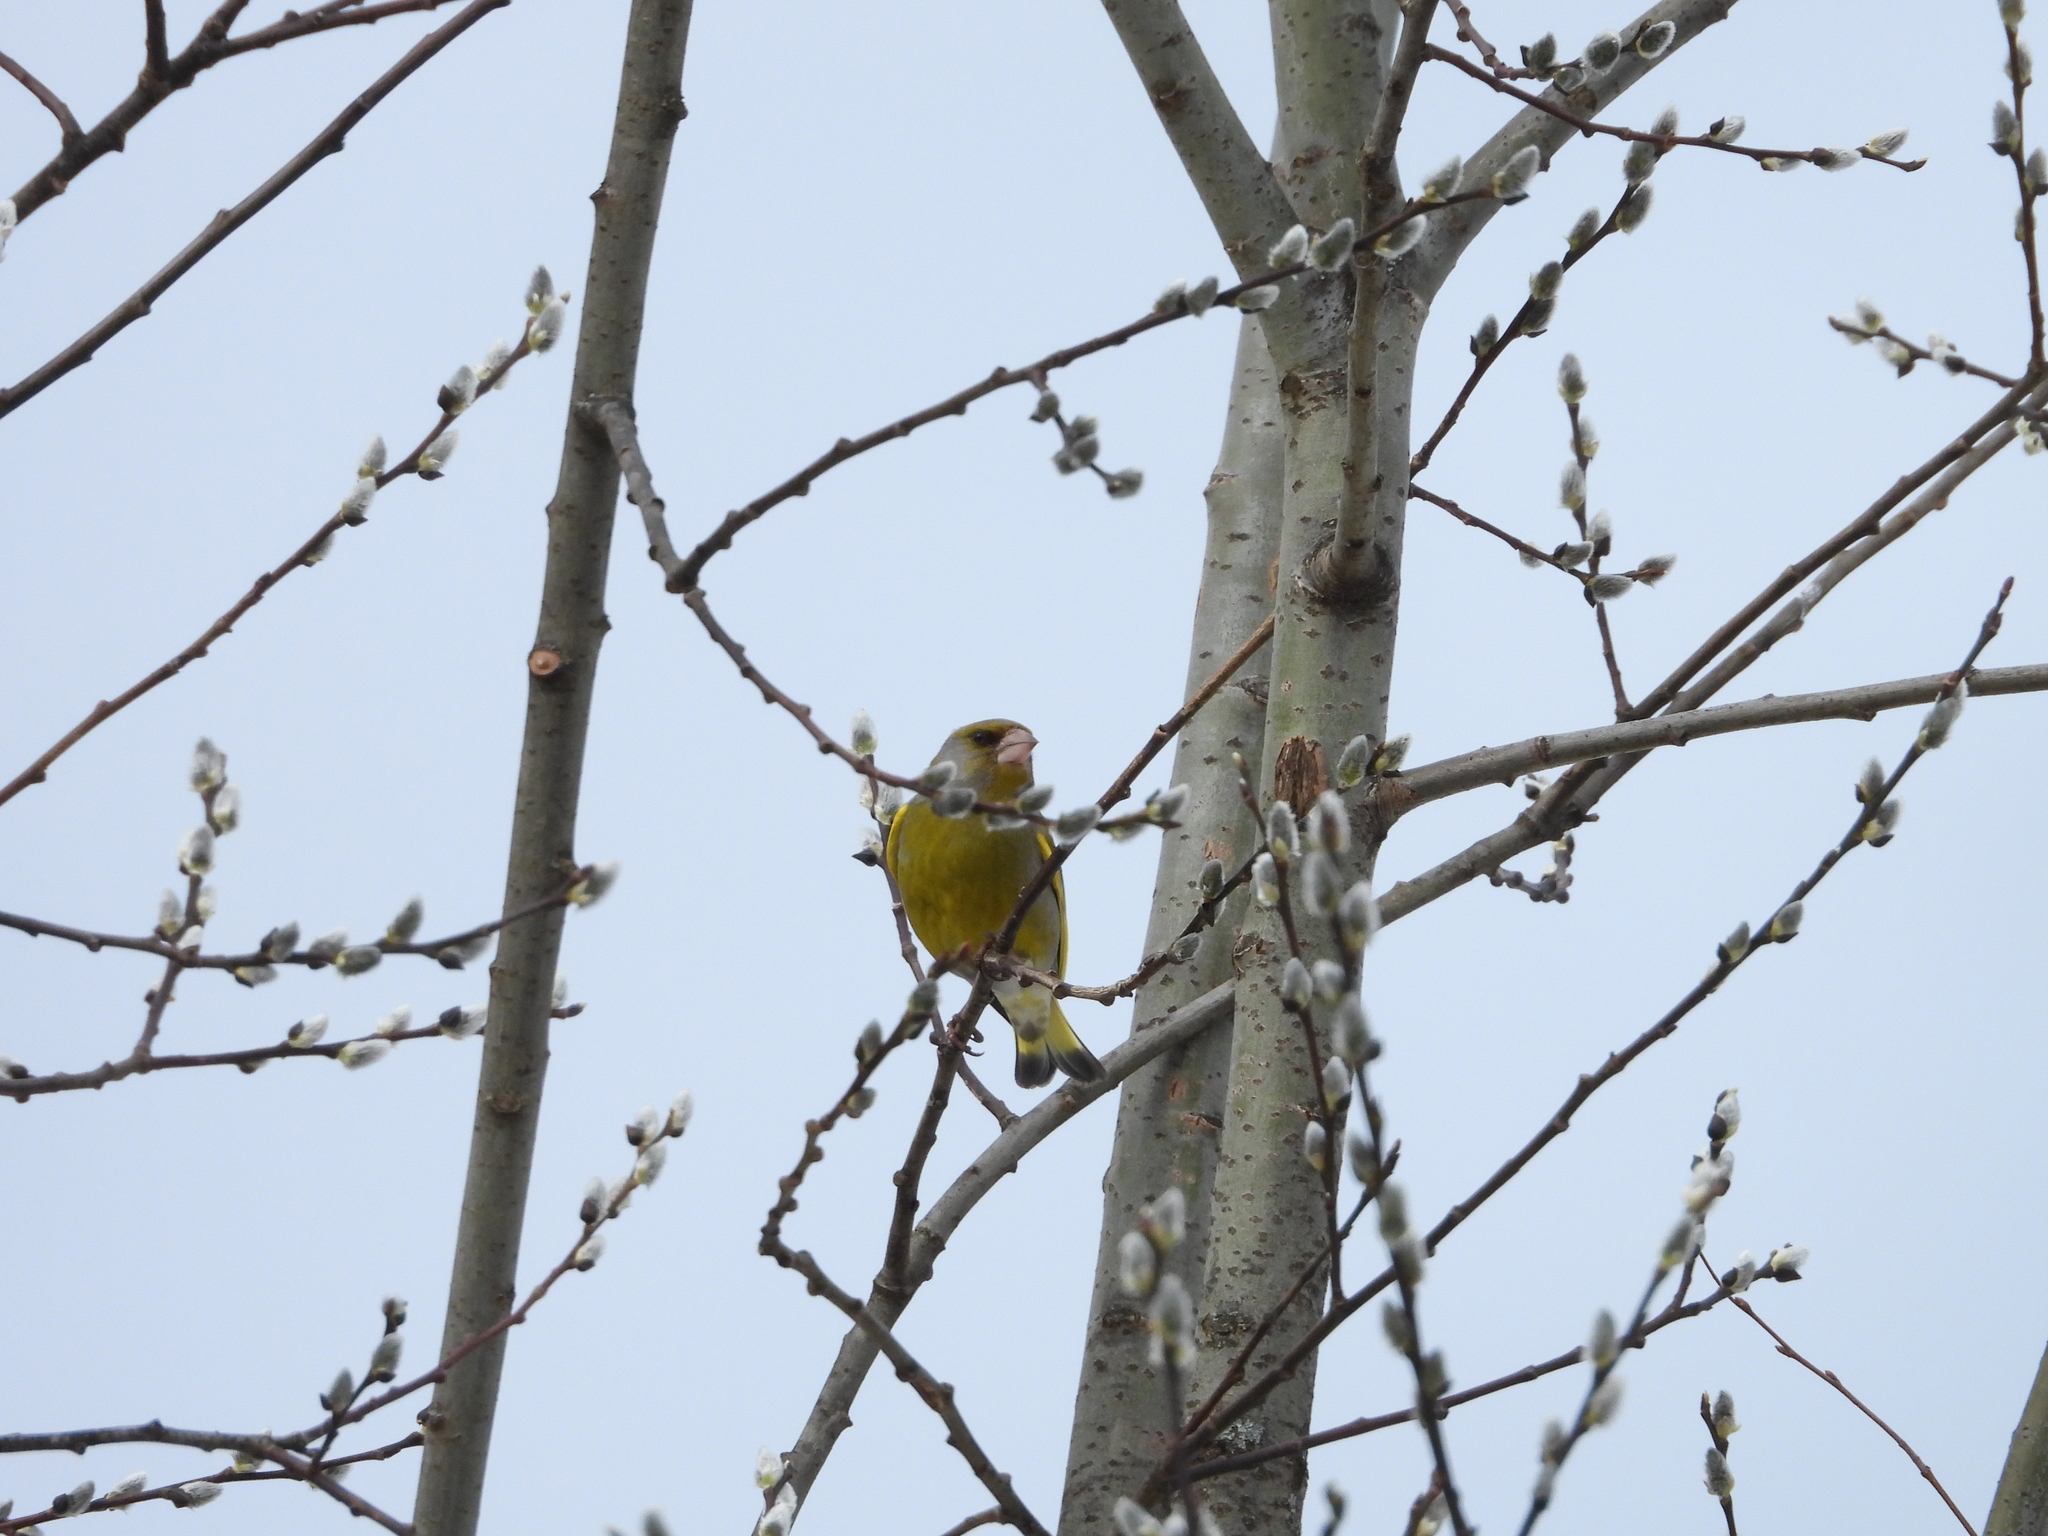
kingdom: Plantae
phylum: Tracheophyta
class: Liliopsida
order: Poales
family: Poaceae
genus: Chloris
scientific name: Chloris chloris
